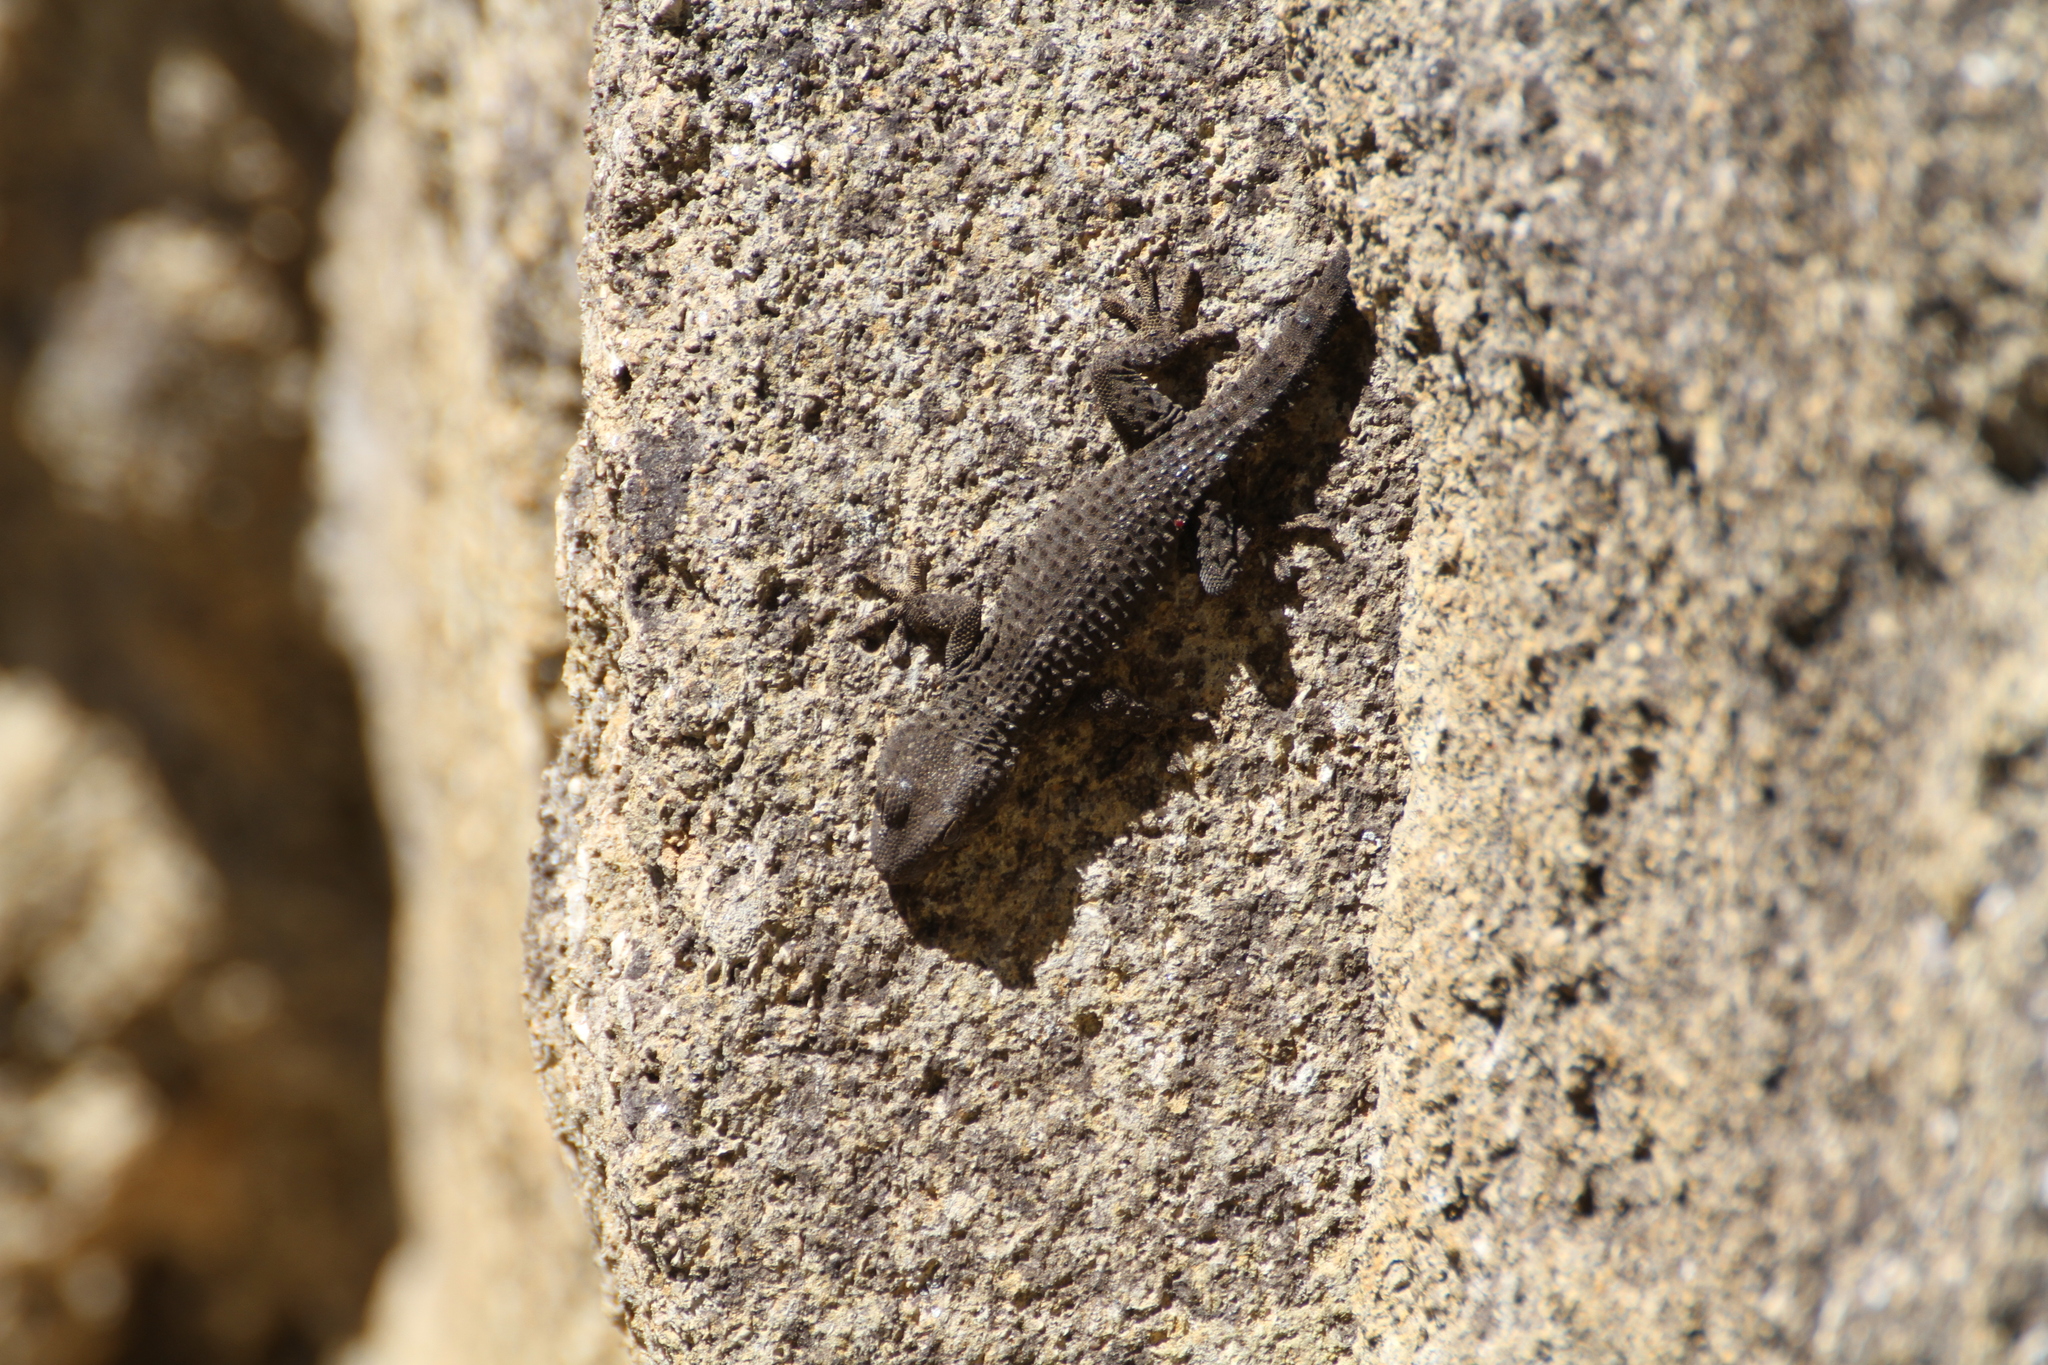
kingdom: Animalia
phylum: Chordata
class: Squamata
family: Phyllodactylidae
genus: Tarentola
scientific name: Tarentola mauritanica
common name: Moorish gecko
